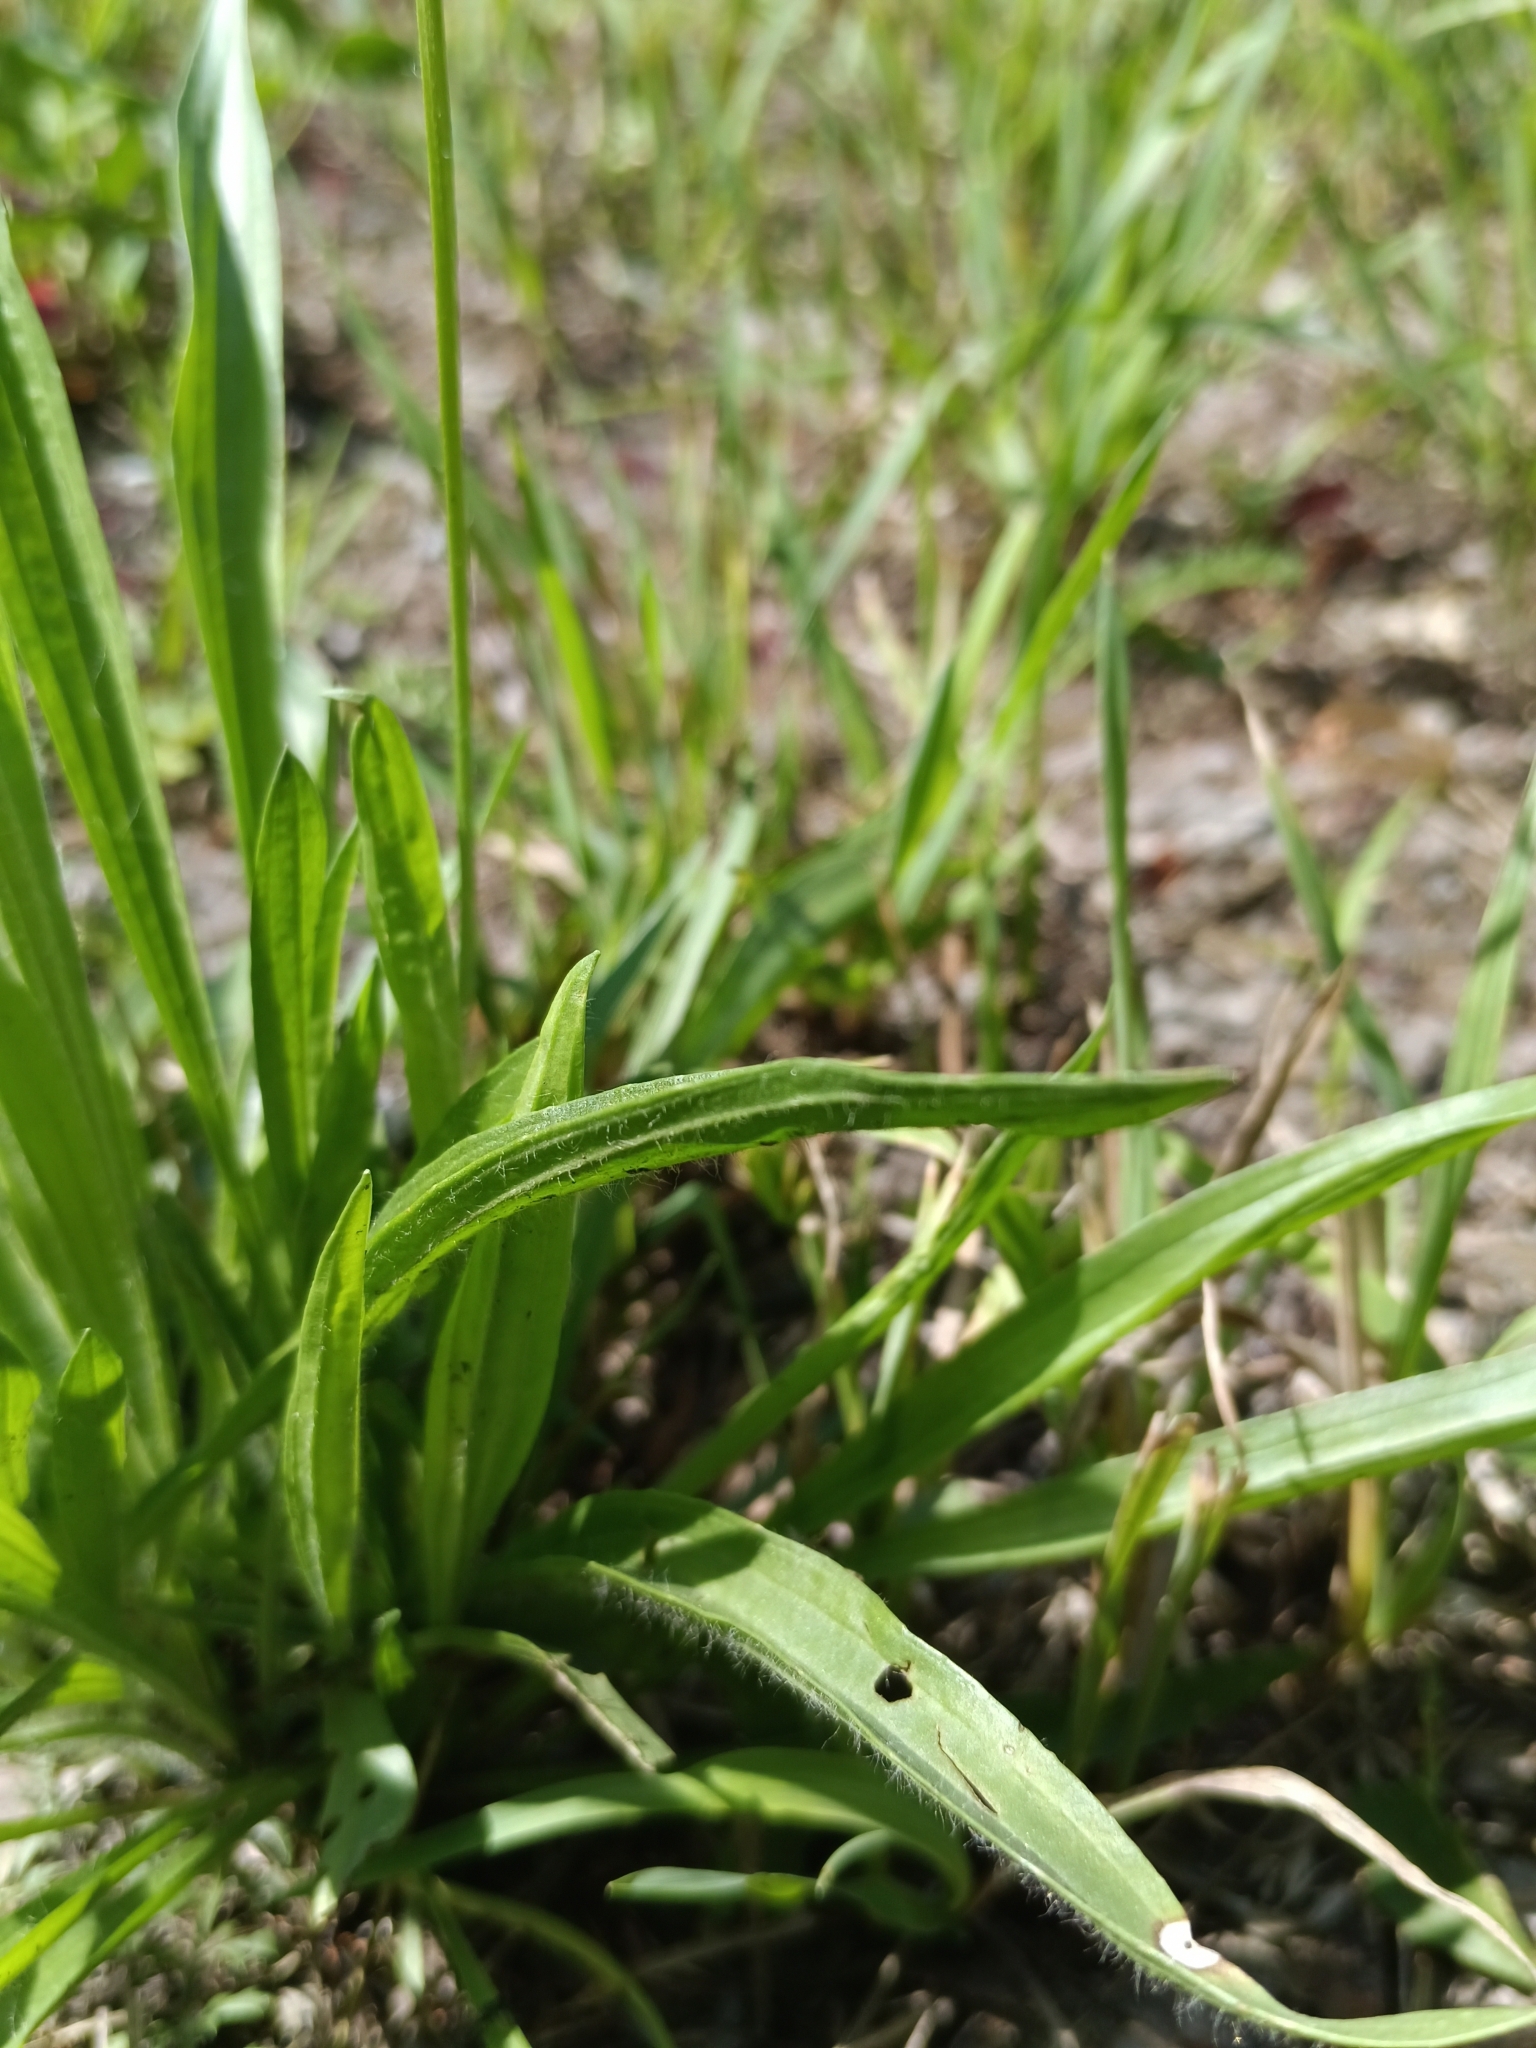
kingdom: Plantae
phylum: Tracheophyta
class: Magnoliopsida
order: Lamiales
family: Plantaginaceae
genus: Plantago
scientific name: Plantago lanceolata
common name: Ribwort plantain
